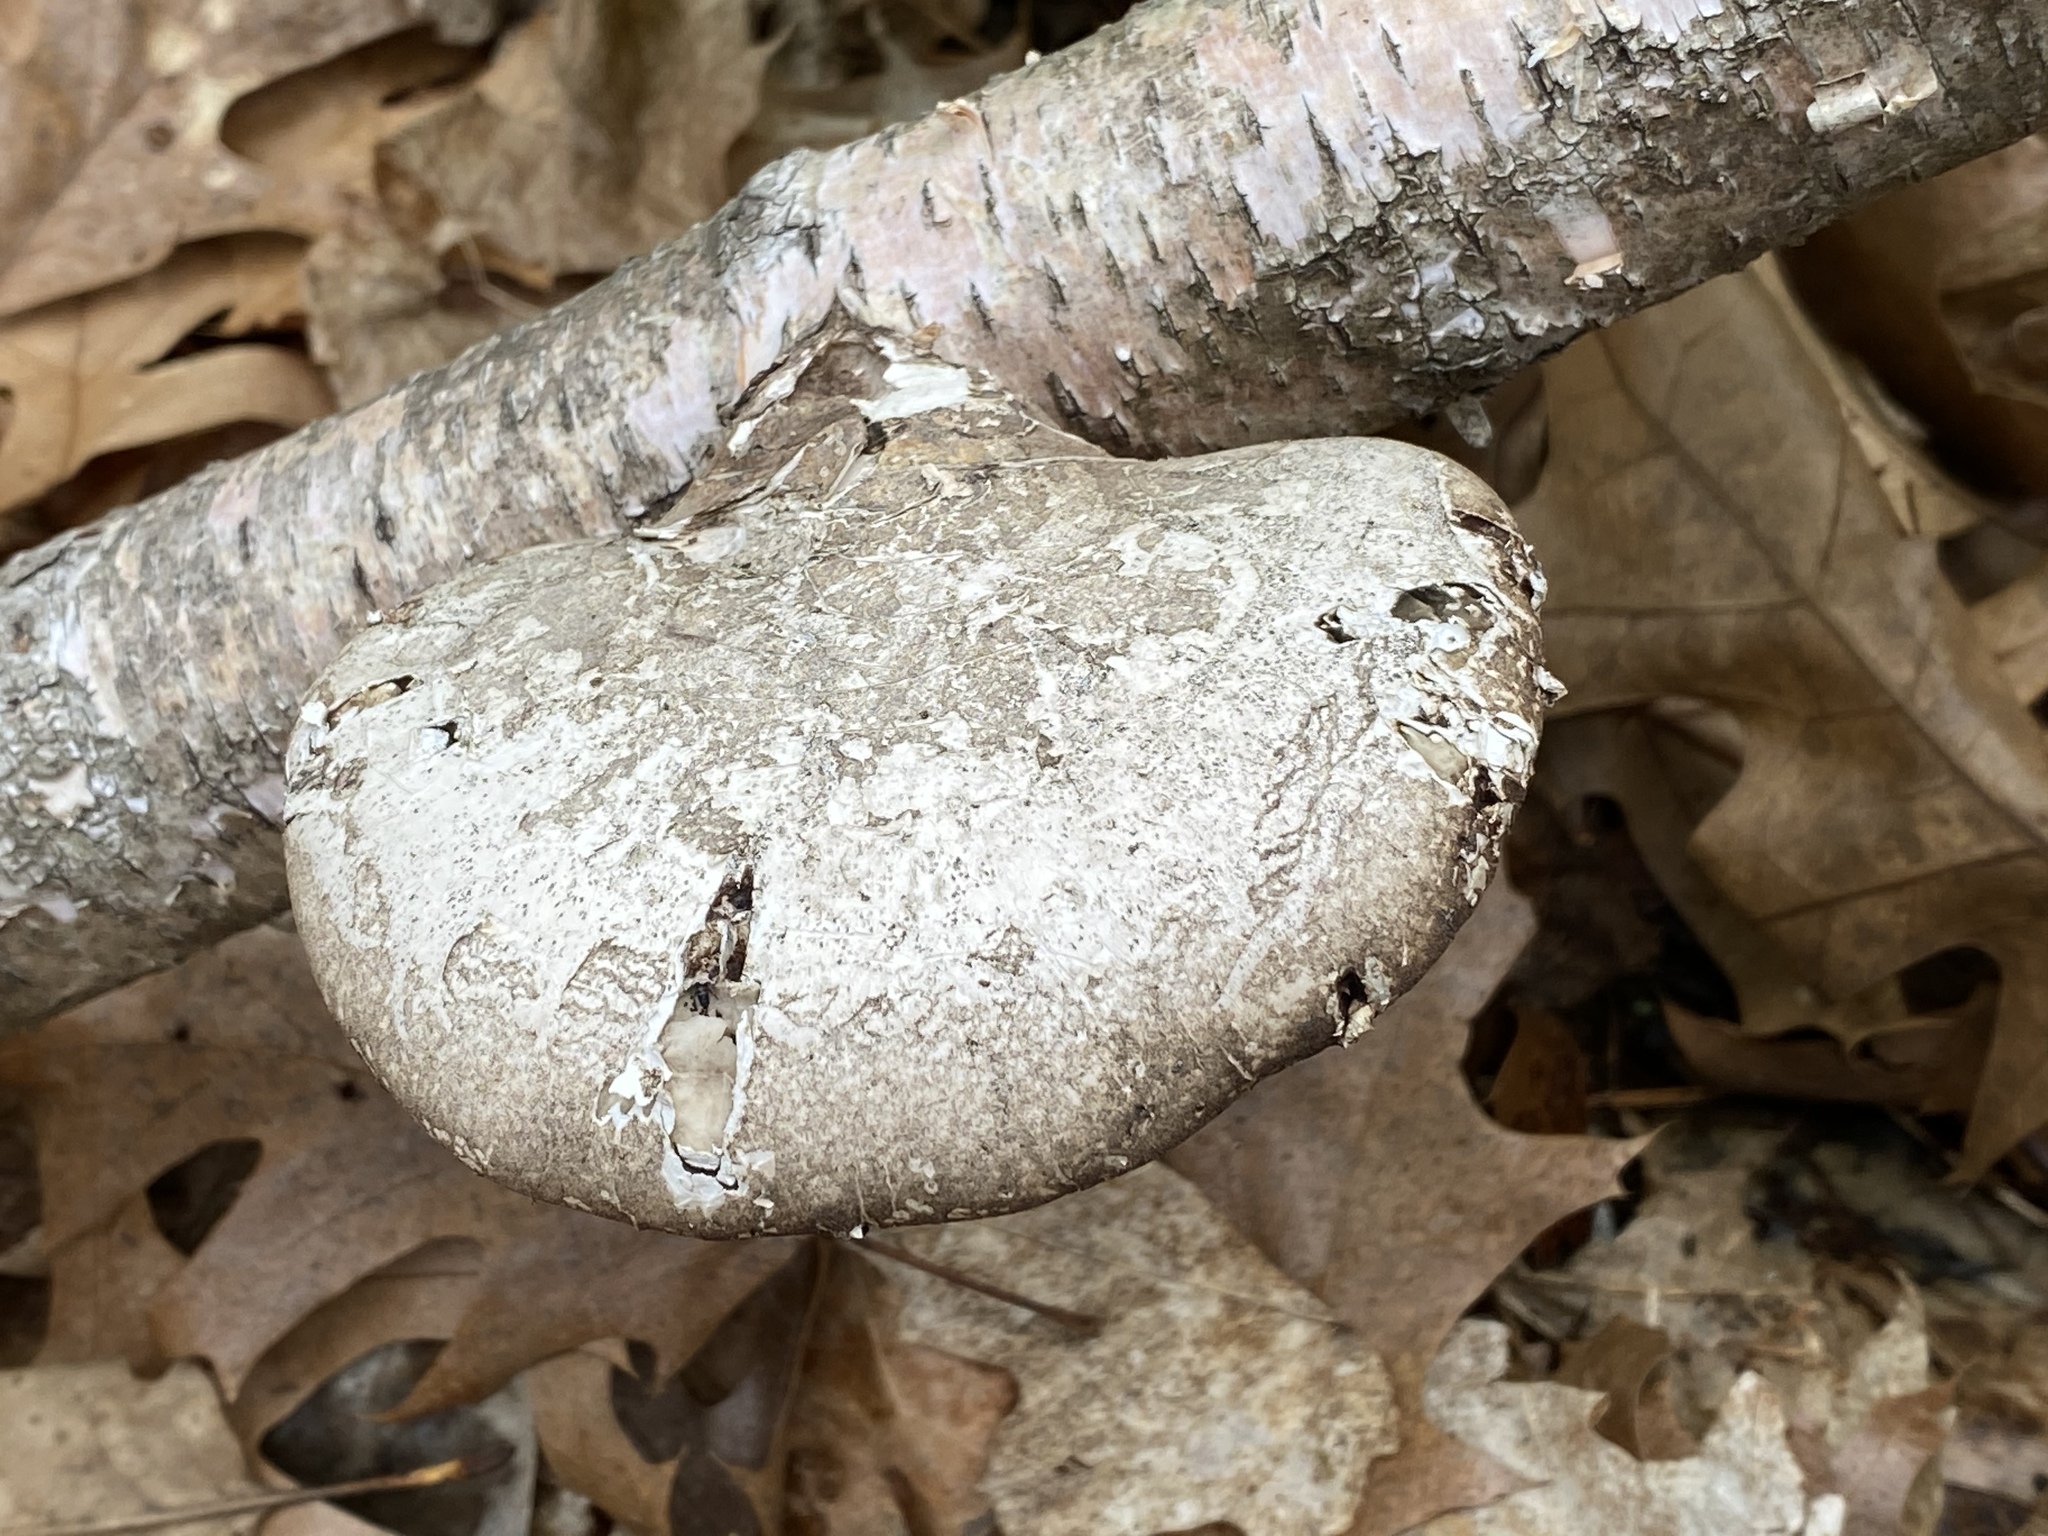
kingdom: Fungi
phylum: Basidiomycota
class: Agaricomycetes
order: Polyporales
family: Fomitopsidaceae
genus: Fomitopsis
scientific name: Fomitopsis betulina
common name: Birch polypore
